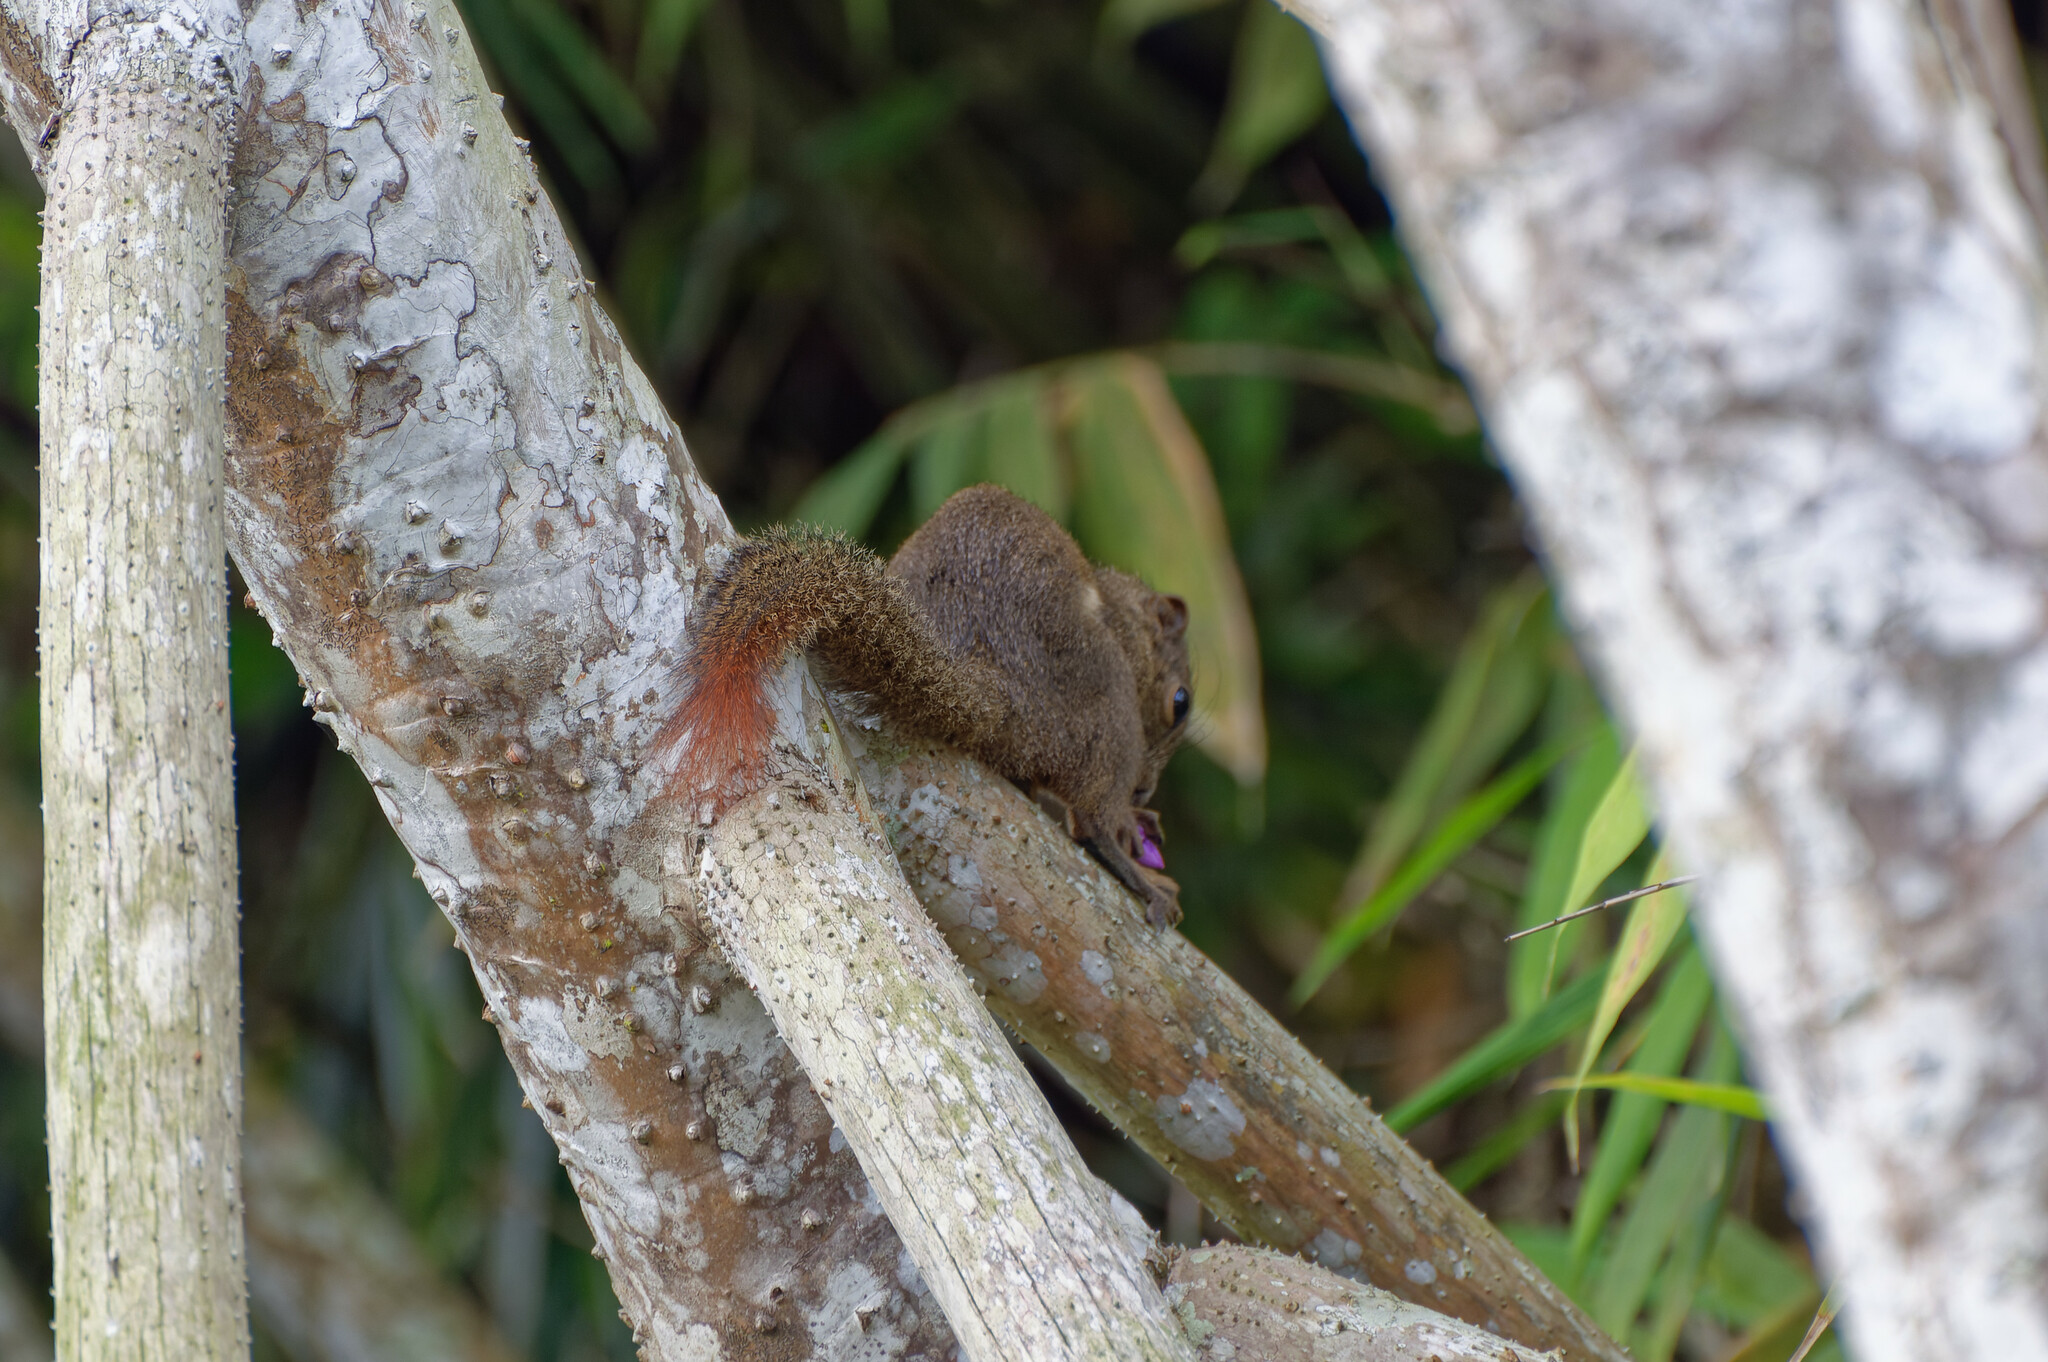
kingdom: Animalia
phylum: Chordata
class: Mammalia
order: Rodentia
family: Sciuridae
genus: Callosciurus
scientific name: Callosciurus notatus
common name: Plantain squirrel
